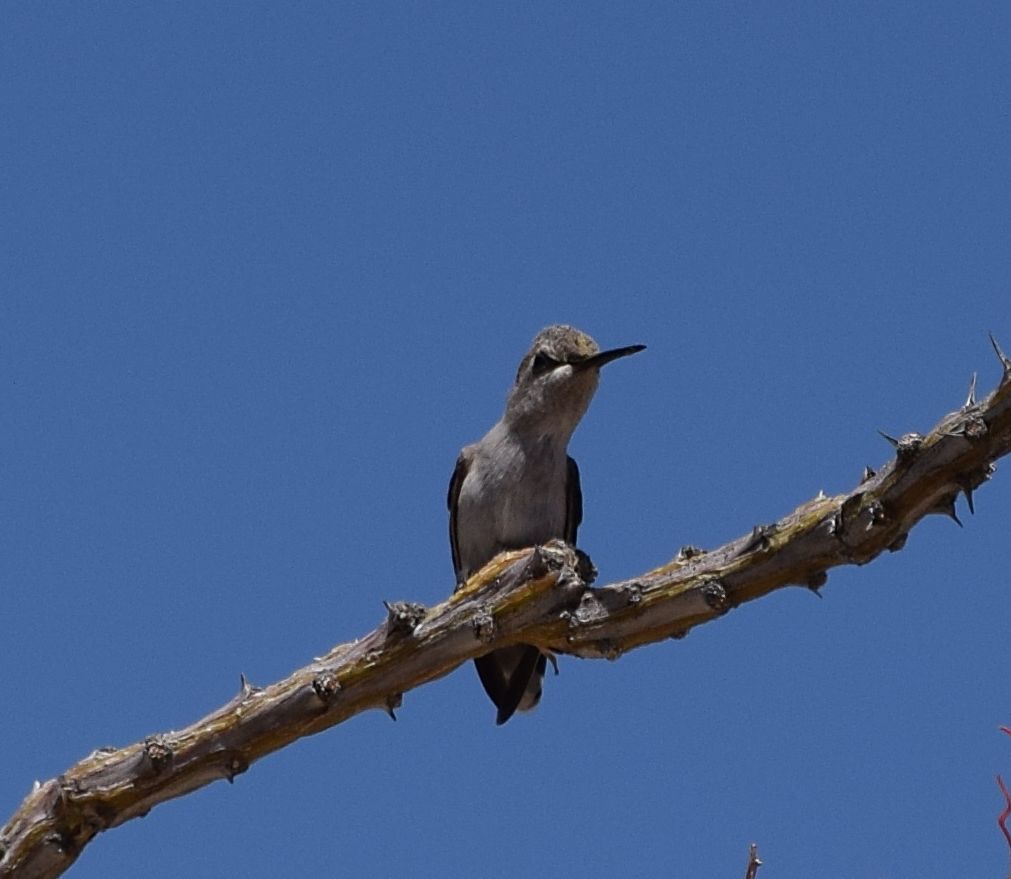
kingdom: Animalia
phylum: Chordata
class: Aves
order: Apodiformes
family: Trochilidae
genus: Calypte
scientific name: Calypte costae
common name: Costa's hummingbird
